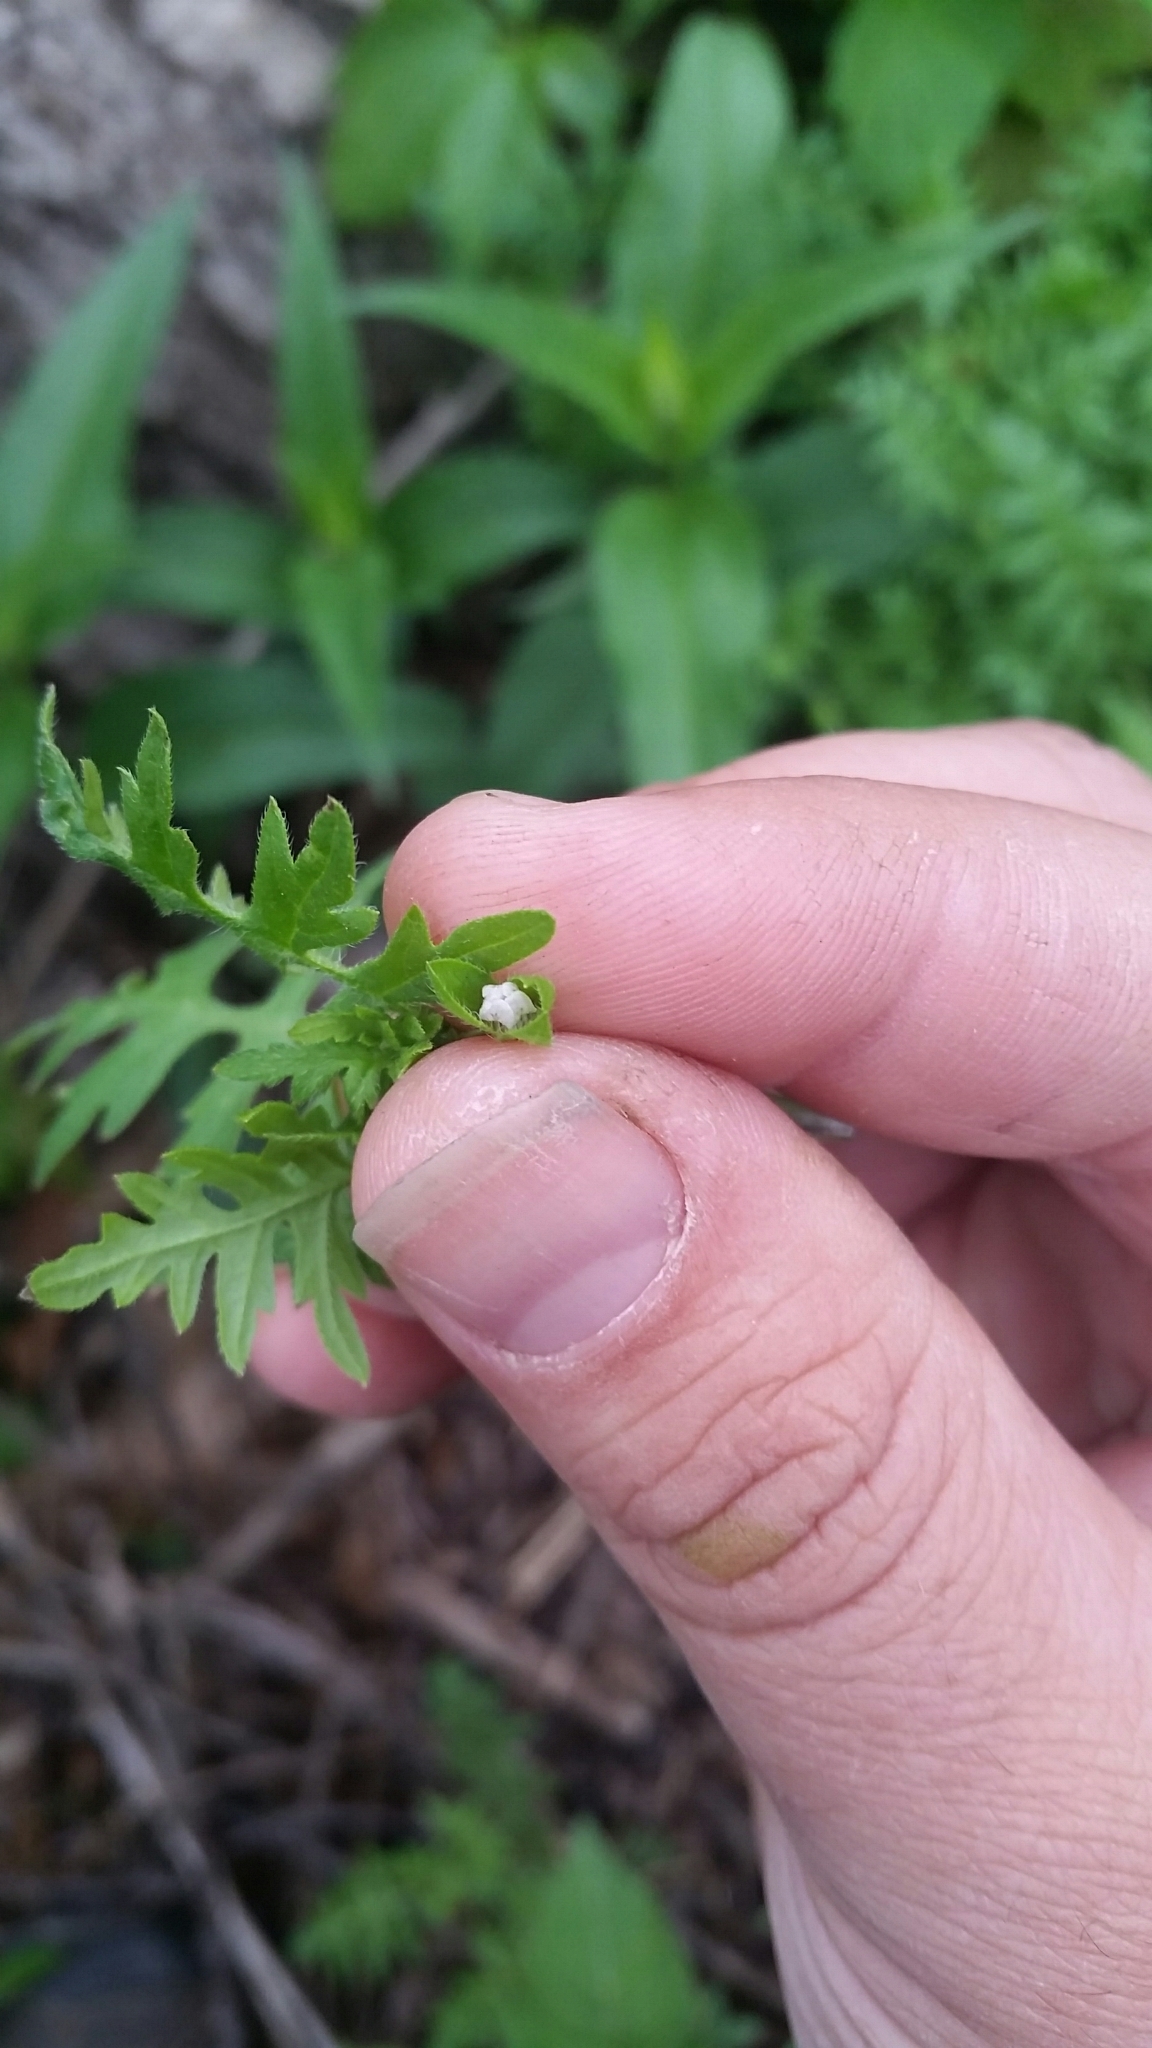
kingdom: Plantae
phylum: Tracheophyta
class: Magnoliopsida
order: Boraginales
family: Hydrophyllaceae
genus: Ellisia
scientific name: Ellisia nyctelea
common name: Aunt lucy
